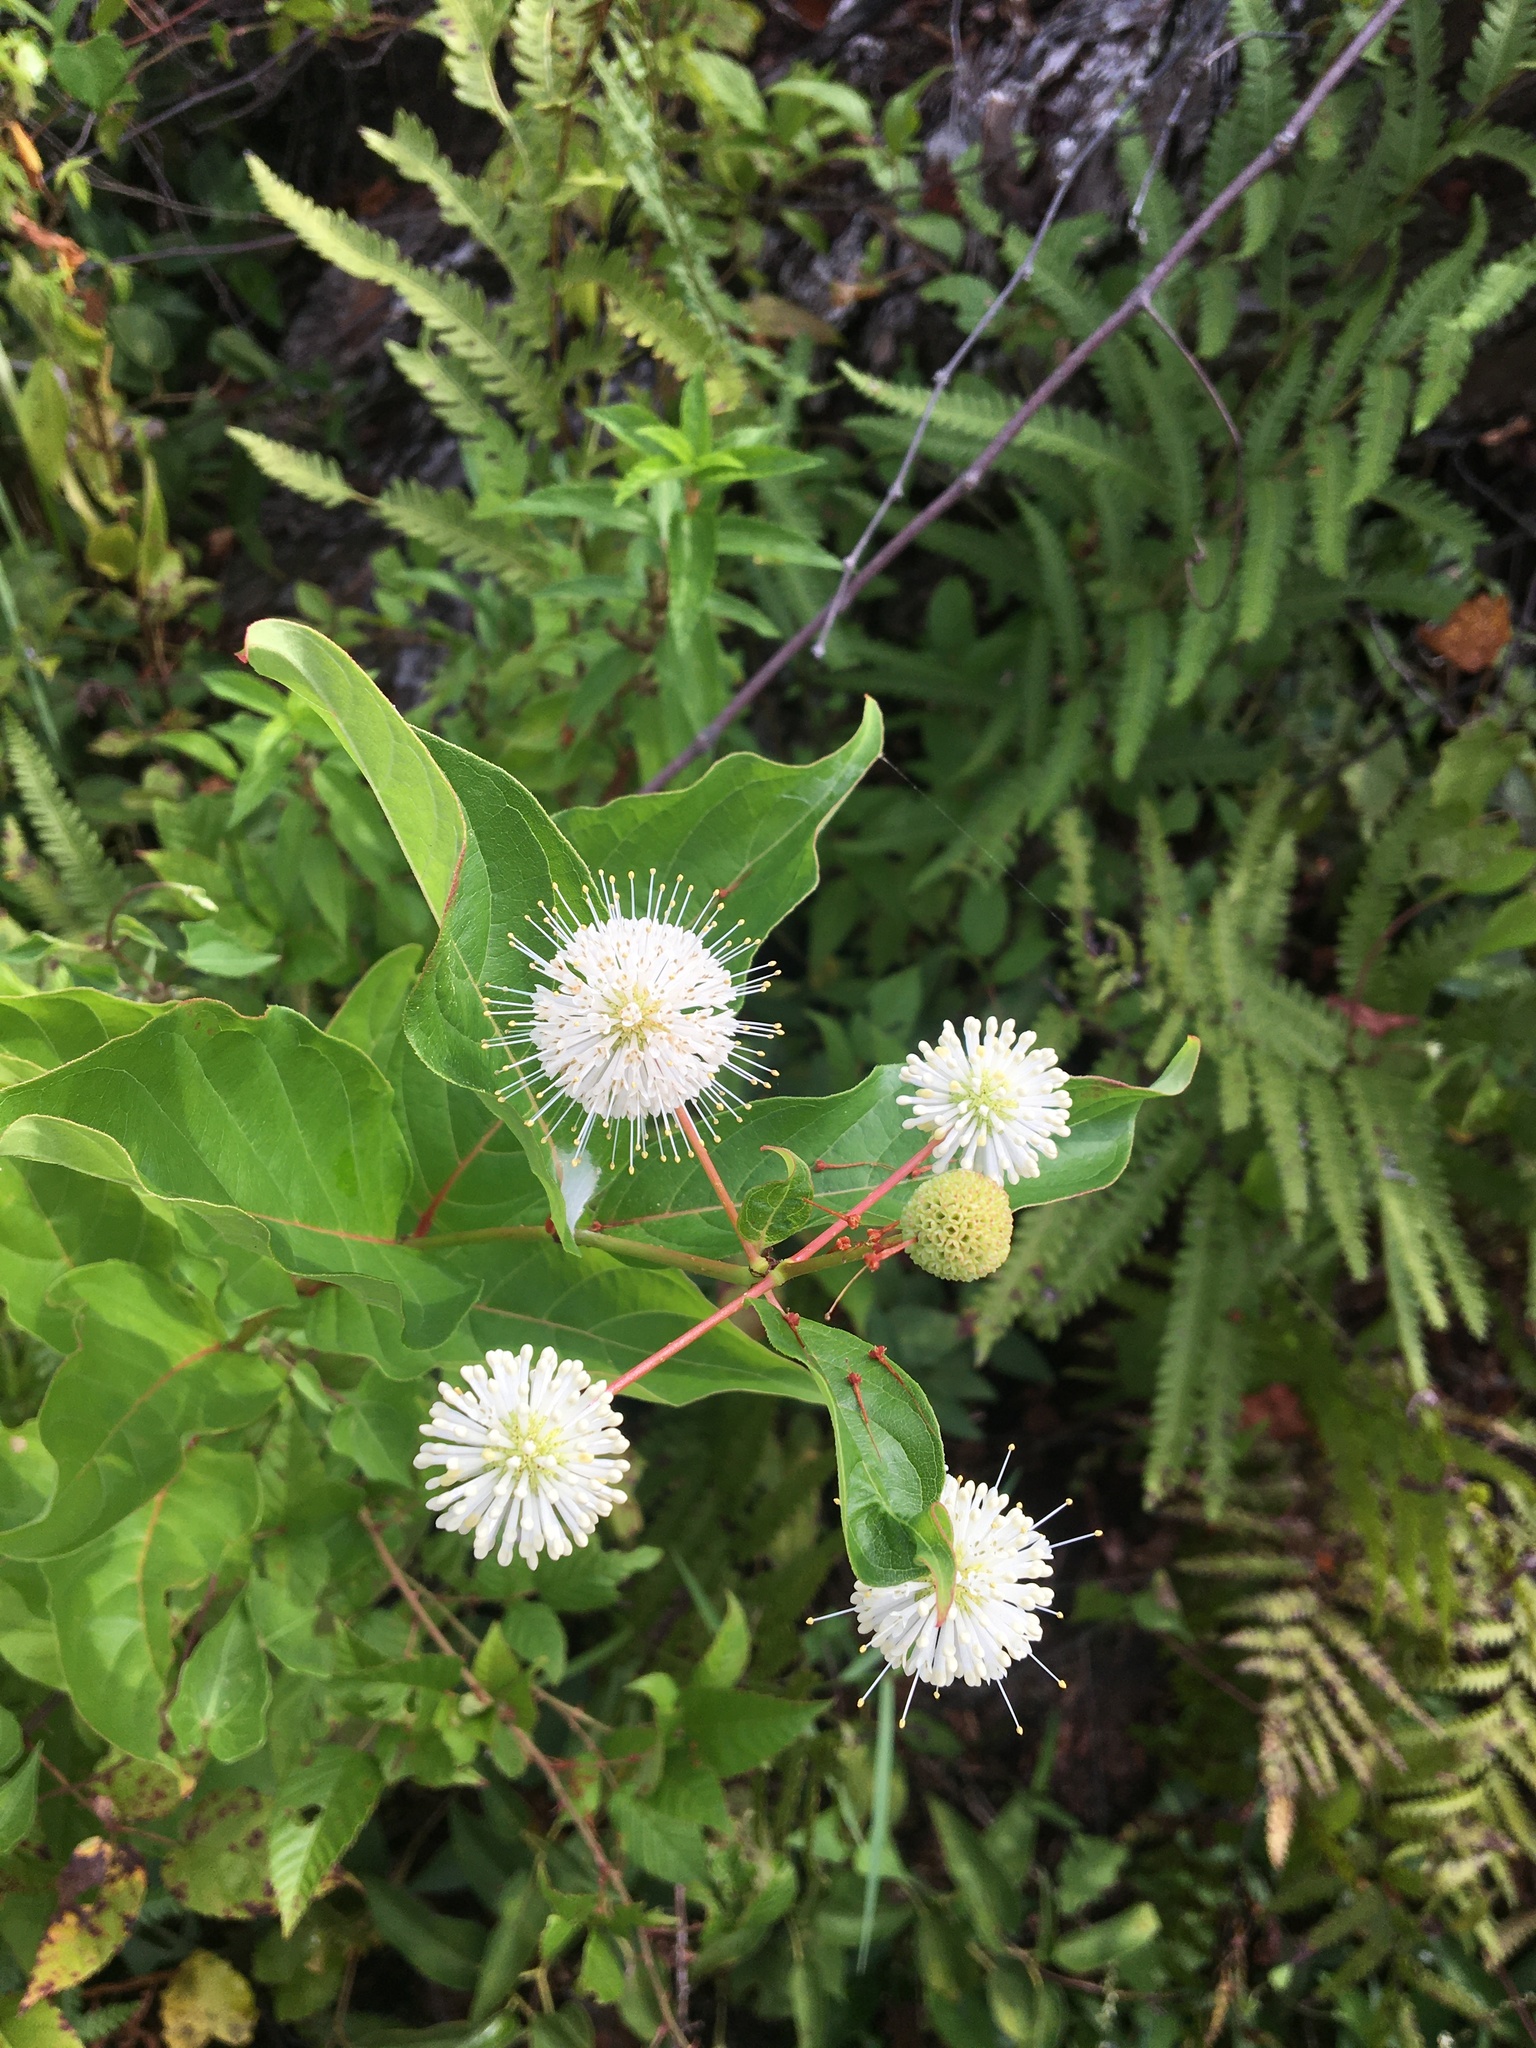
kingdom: Plantae
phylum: Tracheophyta
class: Magnoliopsida
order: Gentianales
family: Rubiaceae
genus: Cephalanthus
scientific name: Cephalanthus occidentalis
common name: Button-willow
